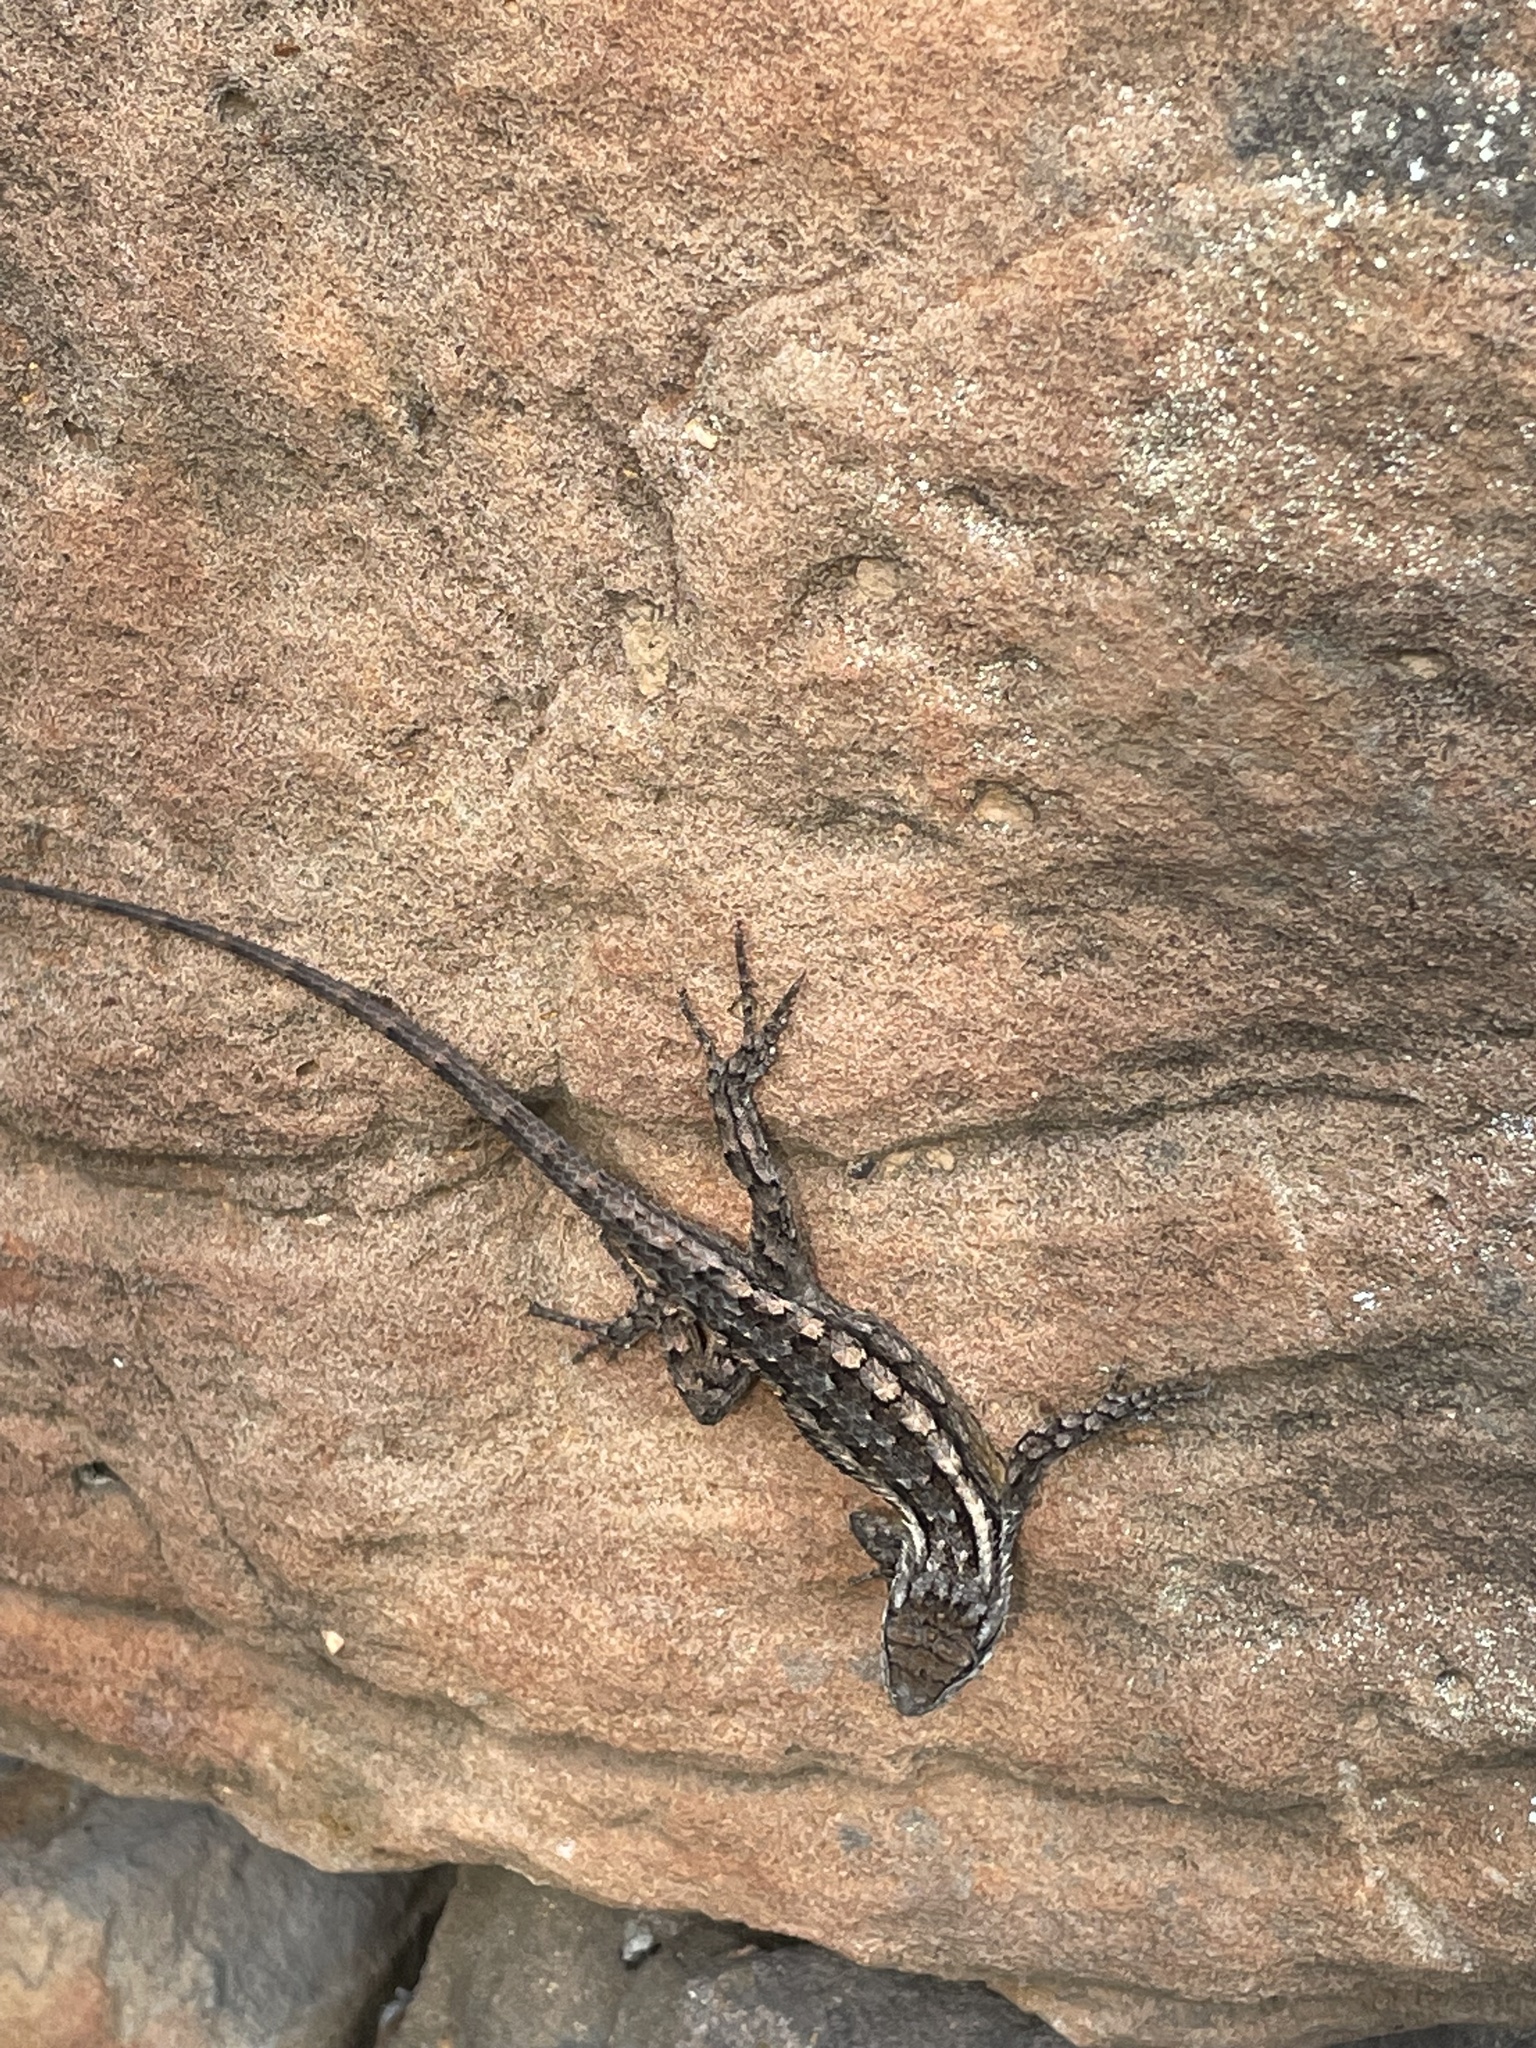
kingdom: Animalia
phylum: Chordata
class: Squamata
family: Phrynosomatidae
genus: Sceloporus
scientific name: Sceloporus olivaceus
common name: Texas spiny lizard
